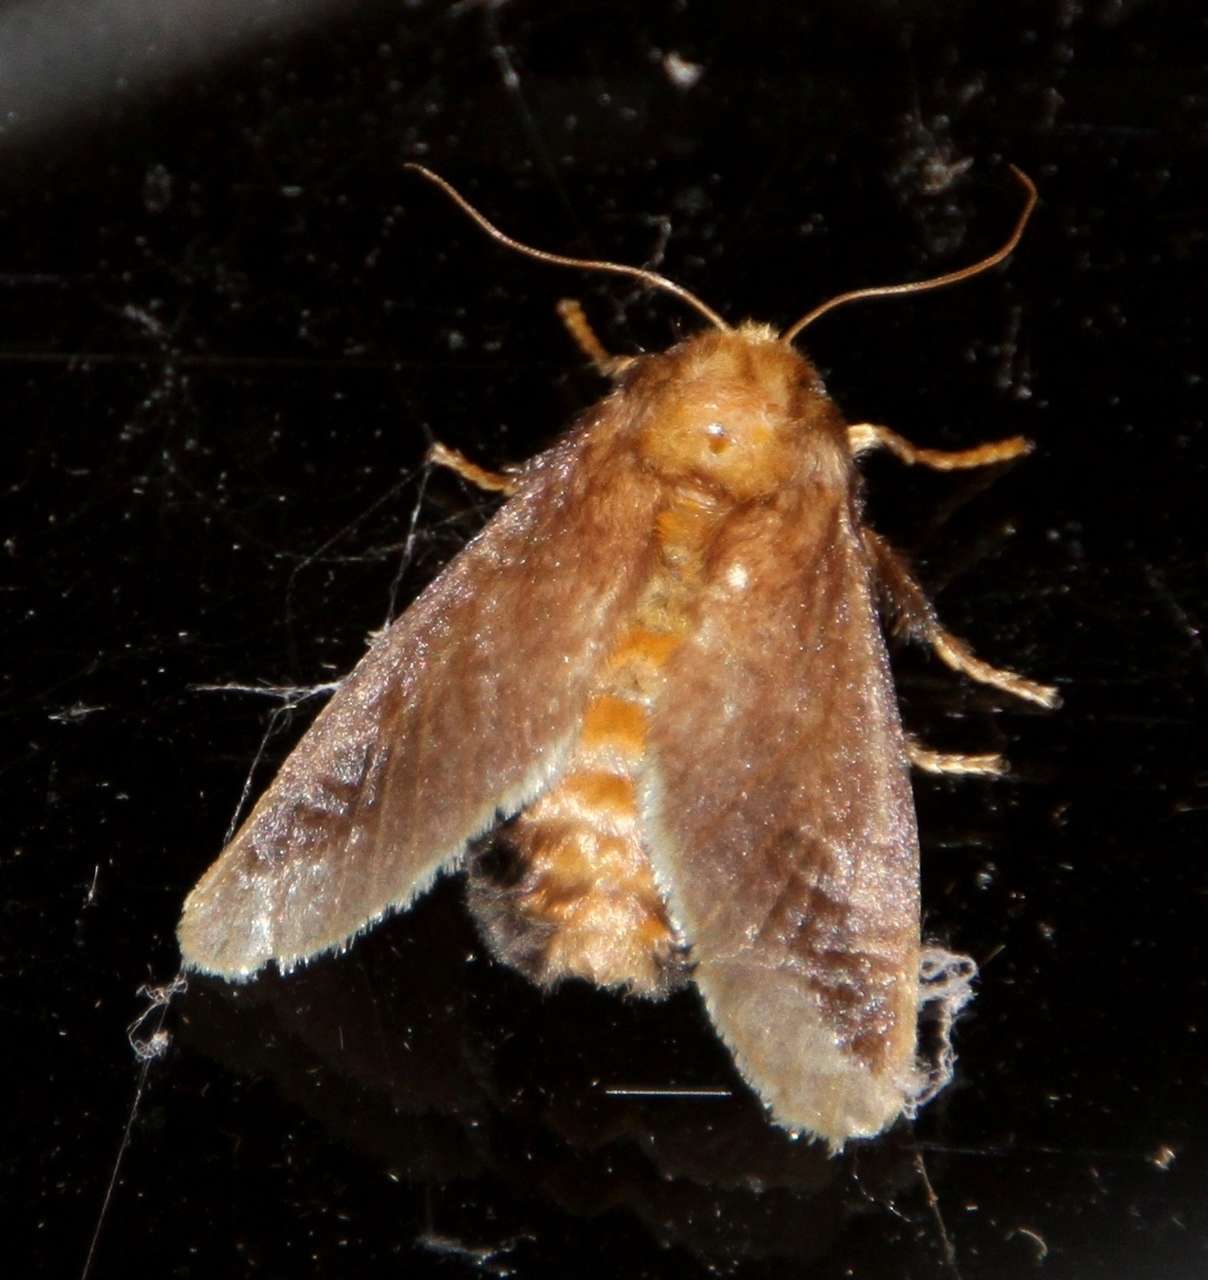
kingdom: Animalia
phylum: Arthropoda
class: Insecta
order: Lepidoptera
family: Limacodidae
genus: Doratifera
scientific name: Doratifera oxleyi
